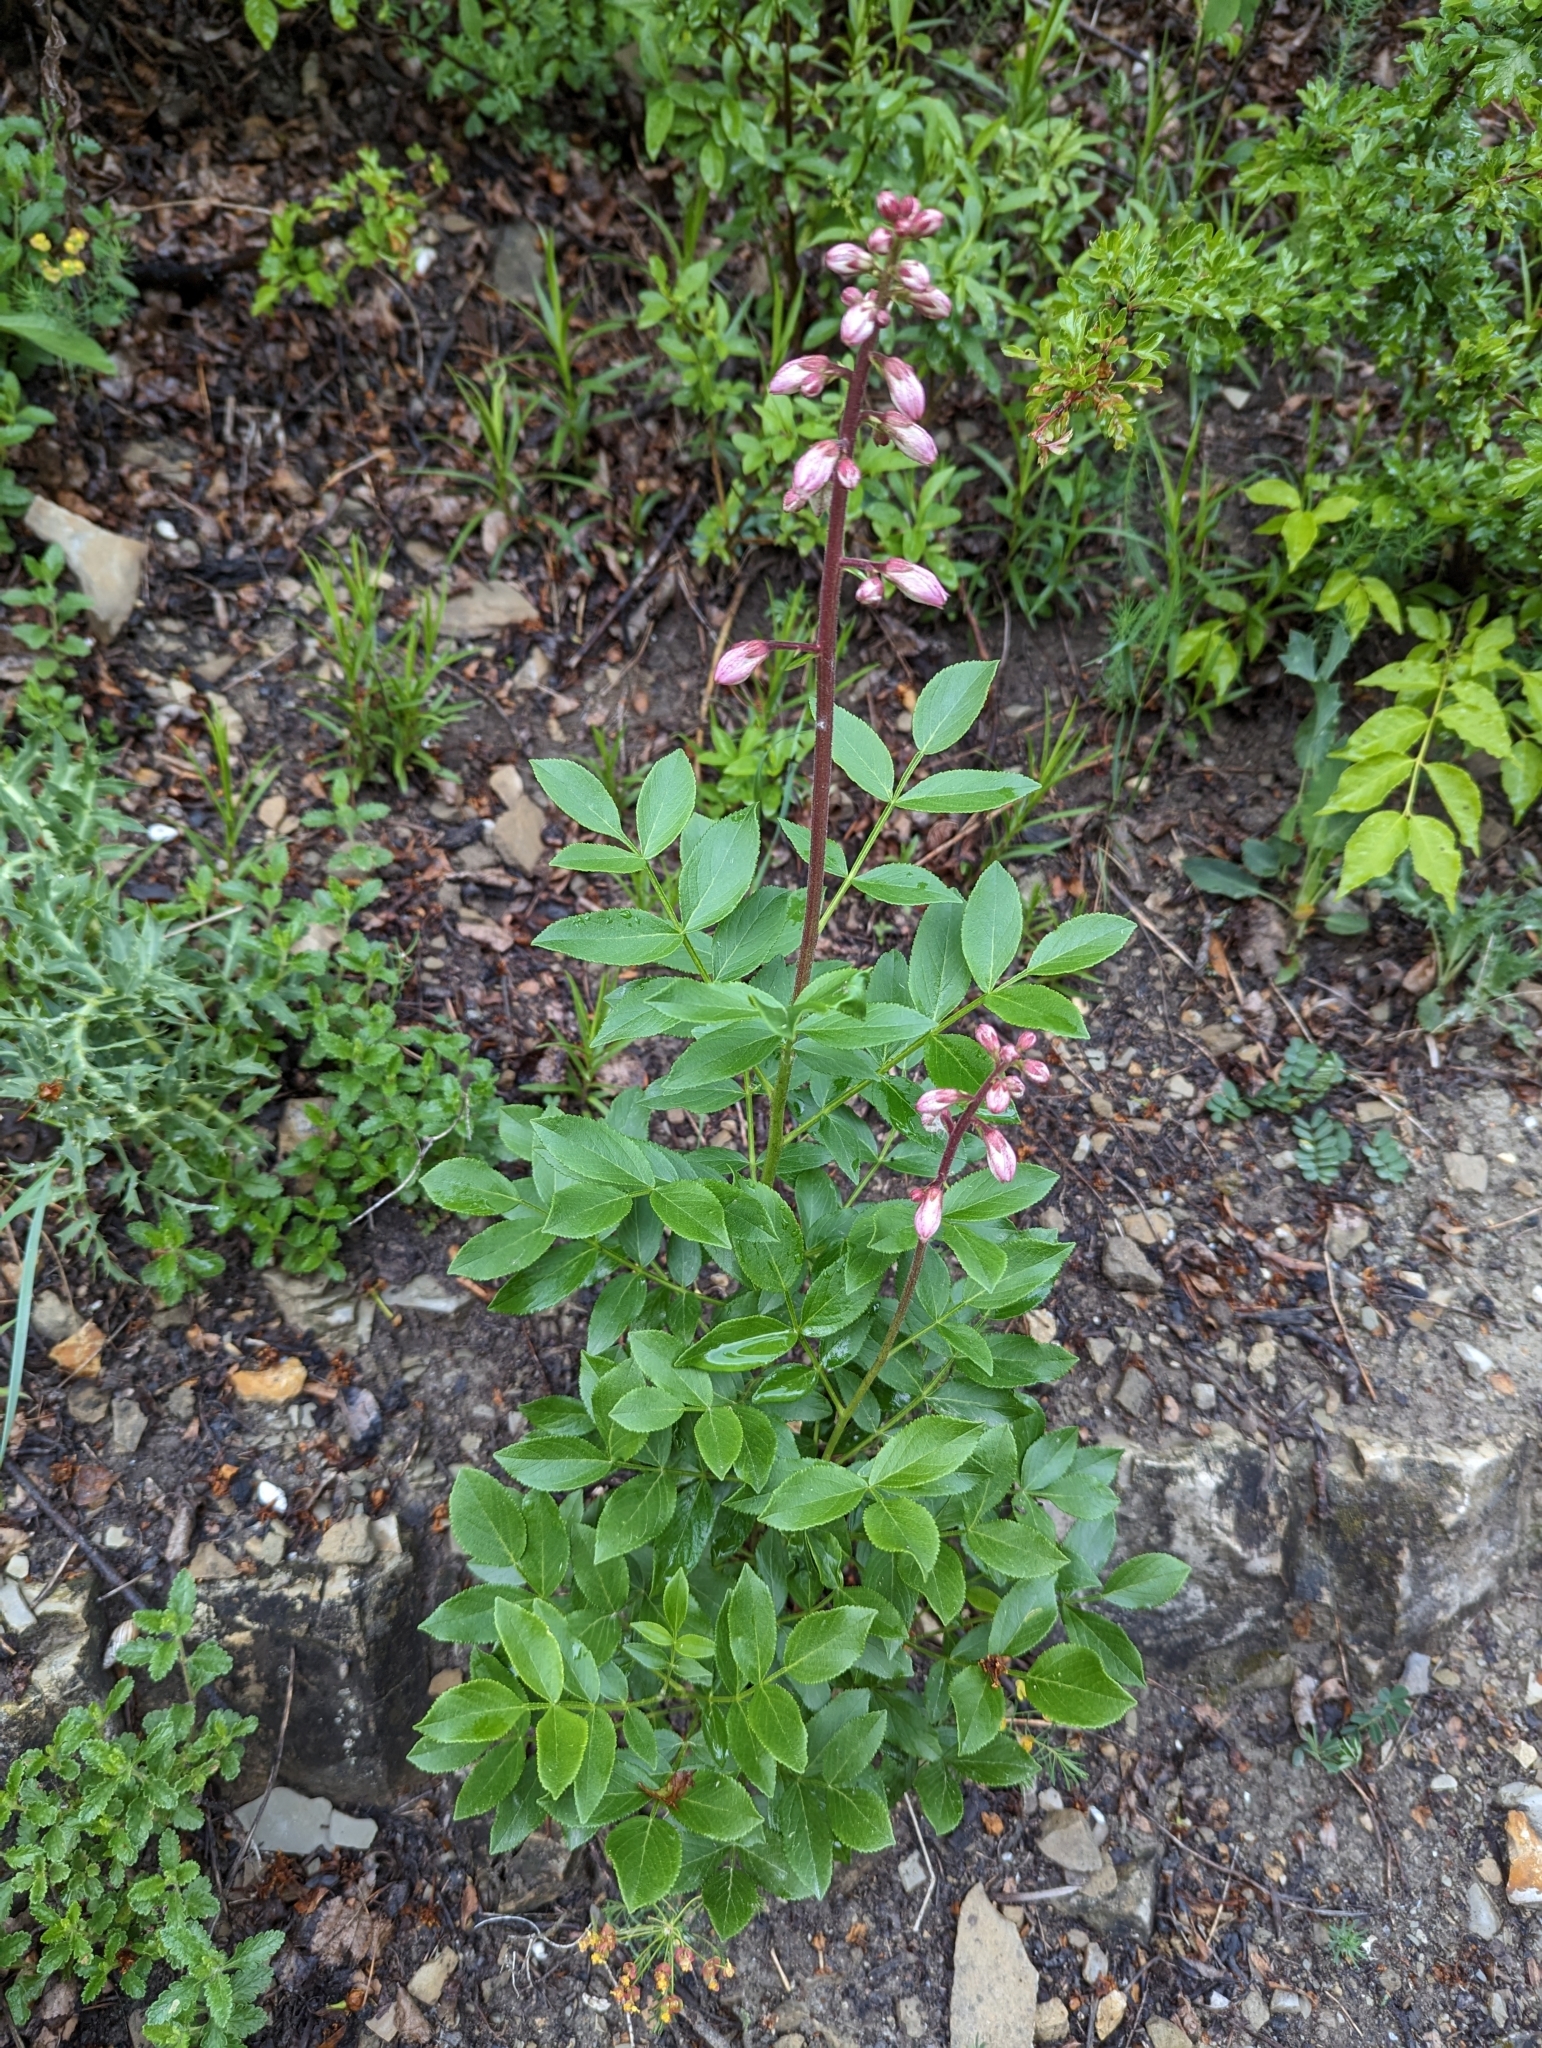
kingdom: Plantae
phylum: Tracheophyta
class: Magnoliopsida
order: Sapindales
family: Rutaceae
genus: Dictamnus
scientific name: Dictamnus albus
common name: Gasplant
